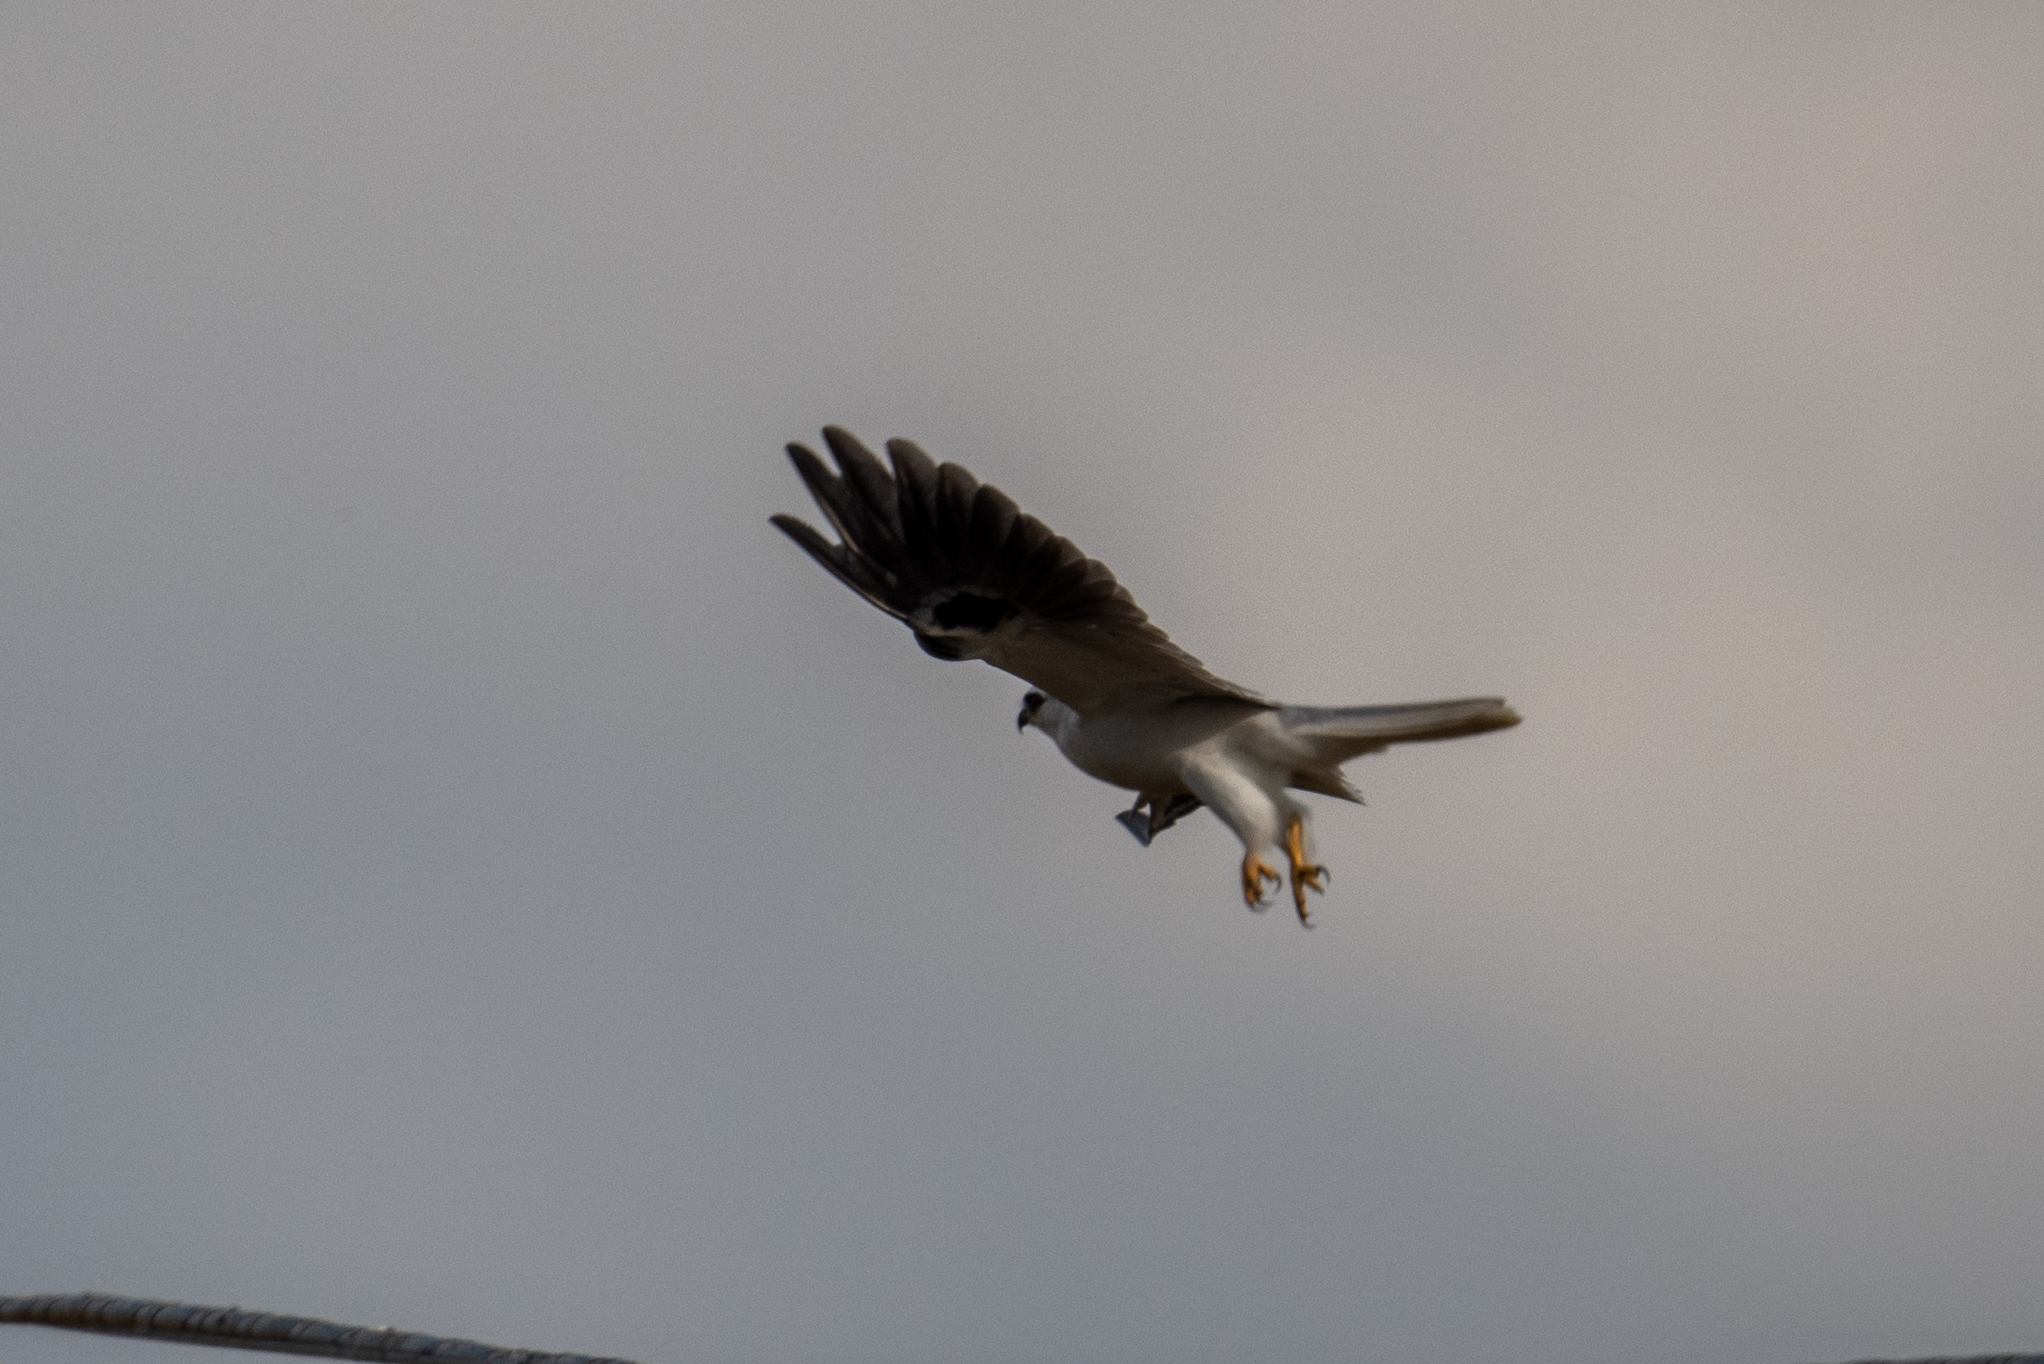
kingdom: Animalia
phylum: Chordata
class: Aves
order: Accipitriformes
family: Accipitridae
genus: Elanus
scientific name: Elanus leucurus
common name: White-tailed kite
